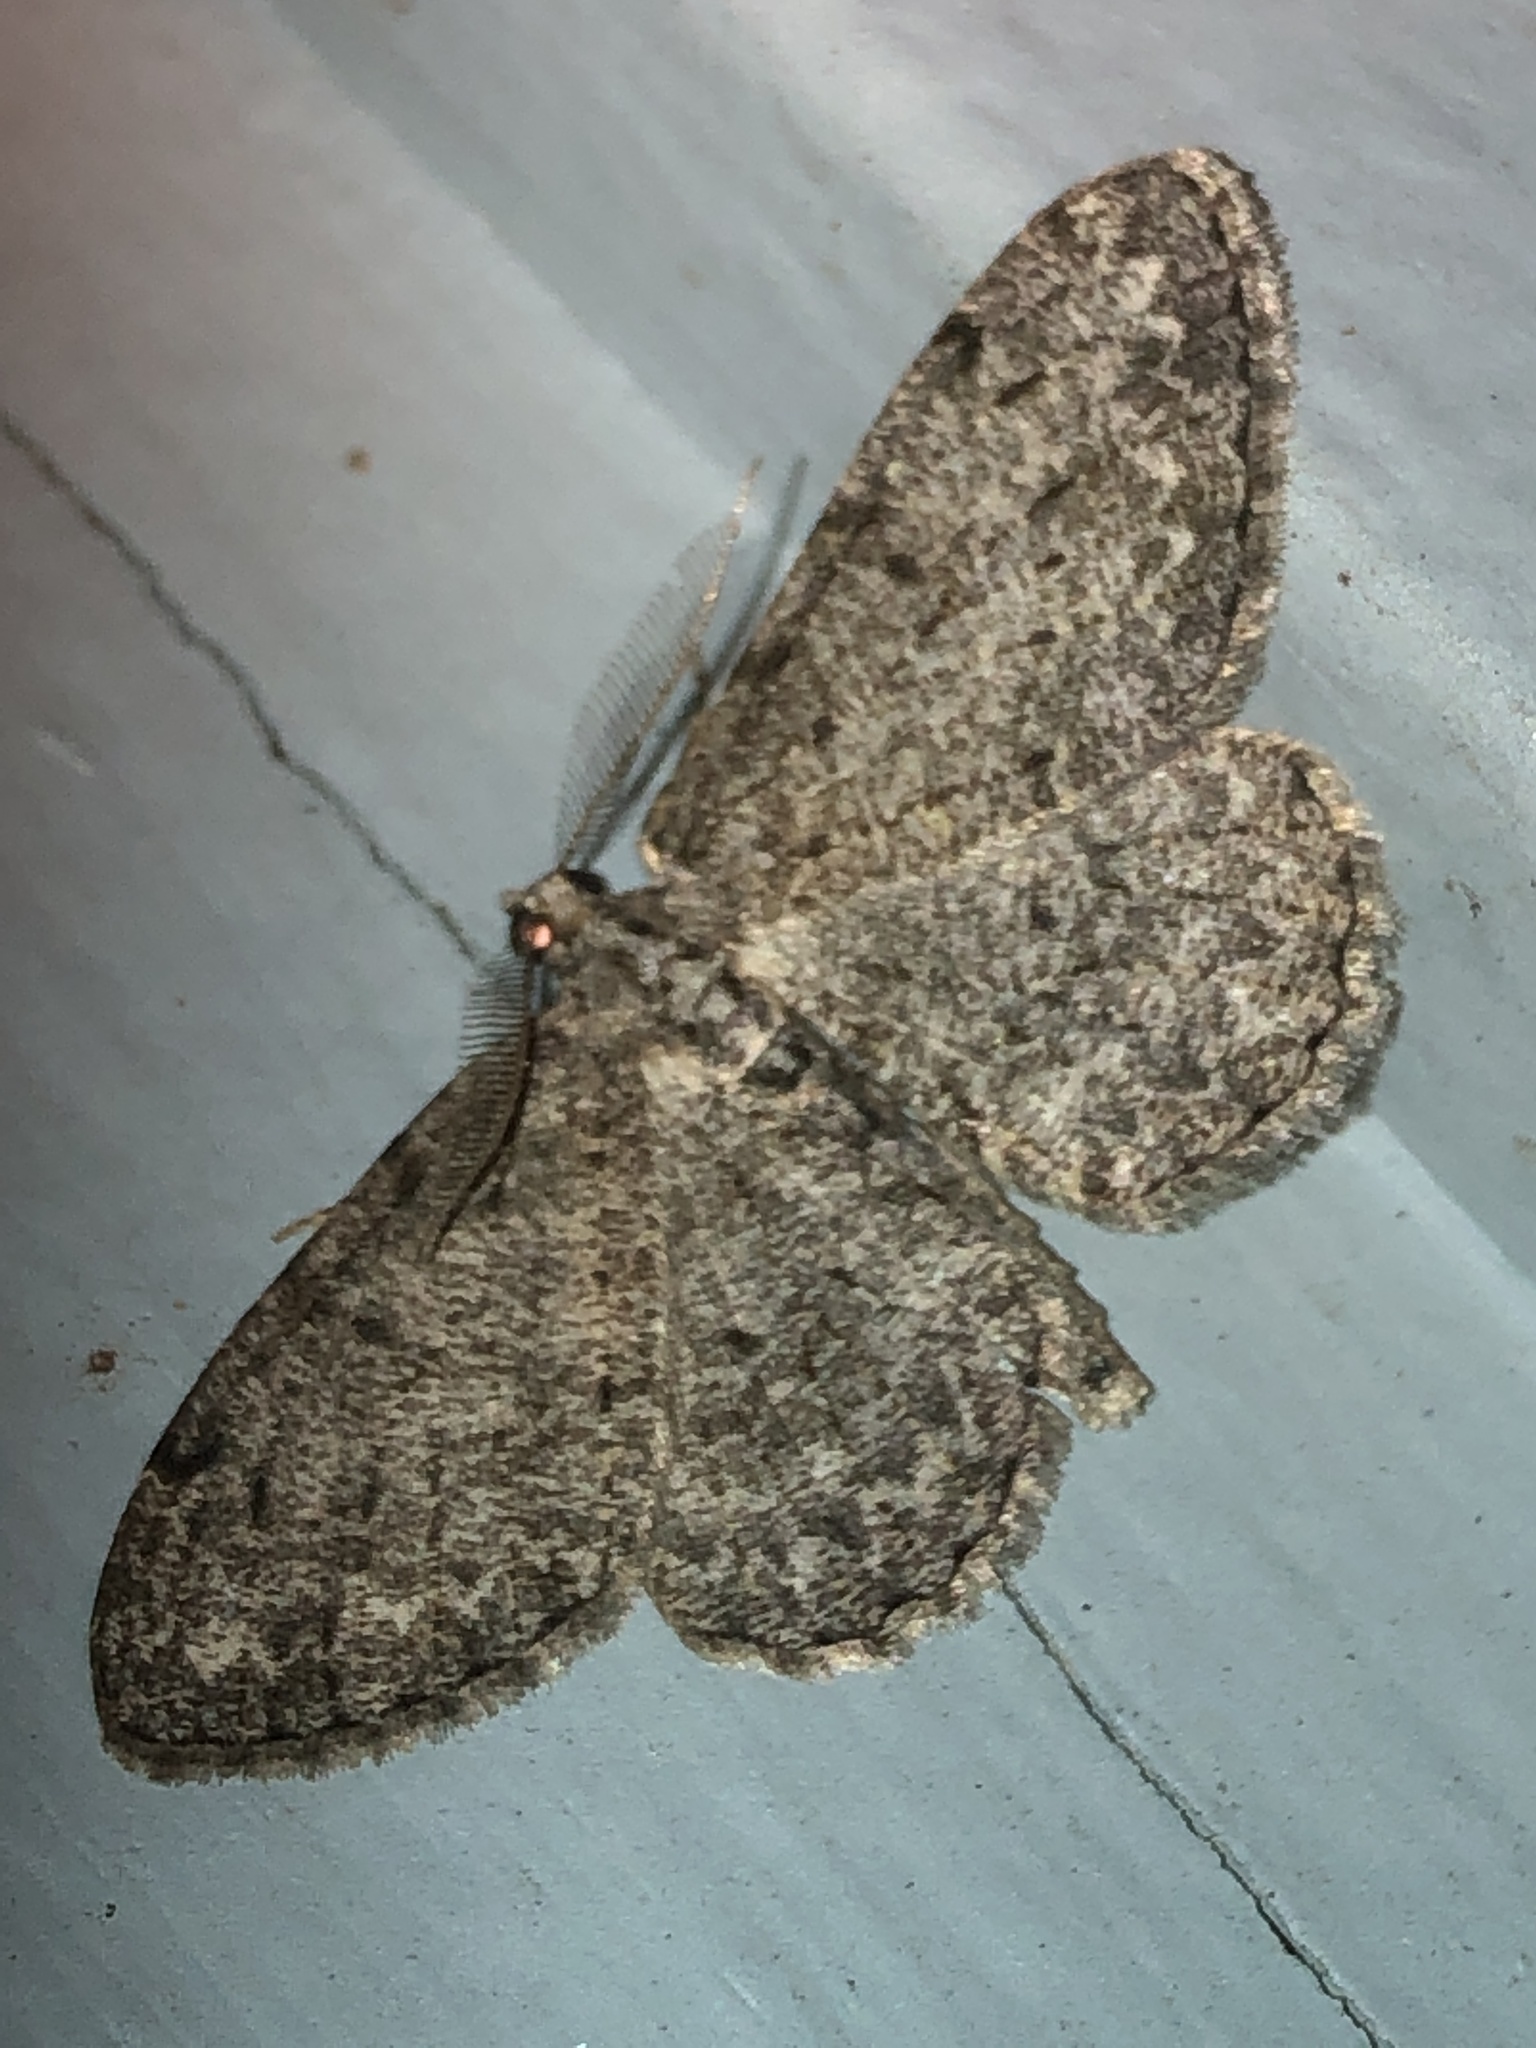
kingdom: Animalia
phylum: Arthropoda
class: Insecta
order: Lepidoptera
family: Geometridae
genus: Protoboarmia
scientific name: Protoboarmia porcelaria
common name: Porcelain gray
